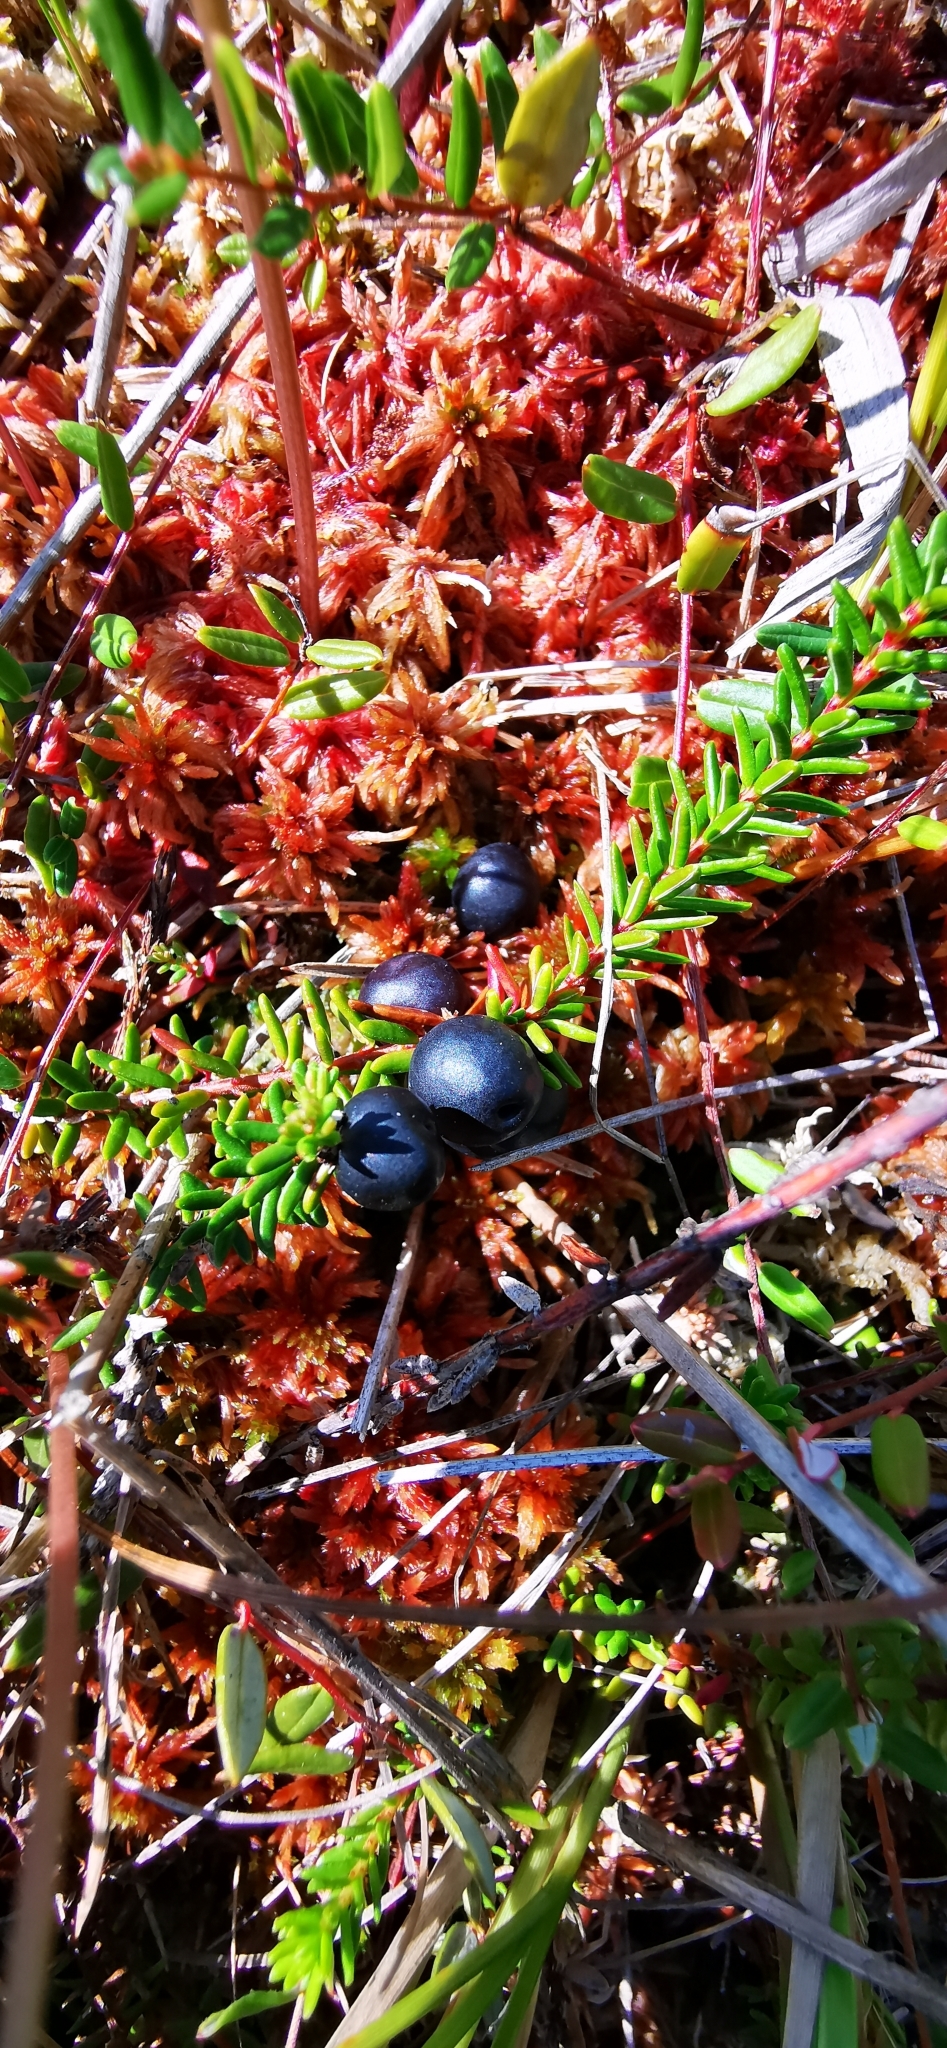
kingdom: Plantae
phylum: Tracheophyta
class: Magnoliopsida
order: Ericales
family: Ericaceae
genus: Empetrum
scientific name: Empetrum nigrum
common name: Black crowberry
